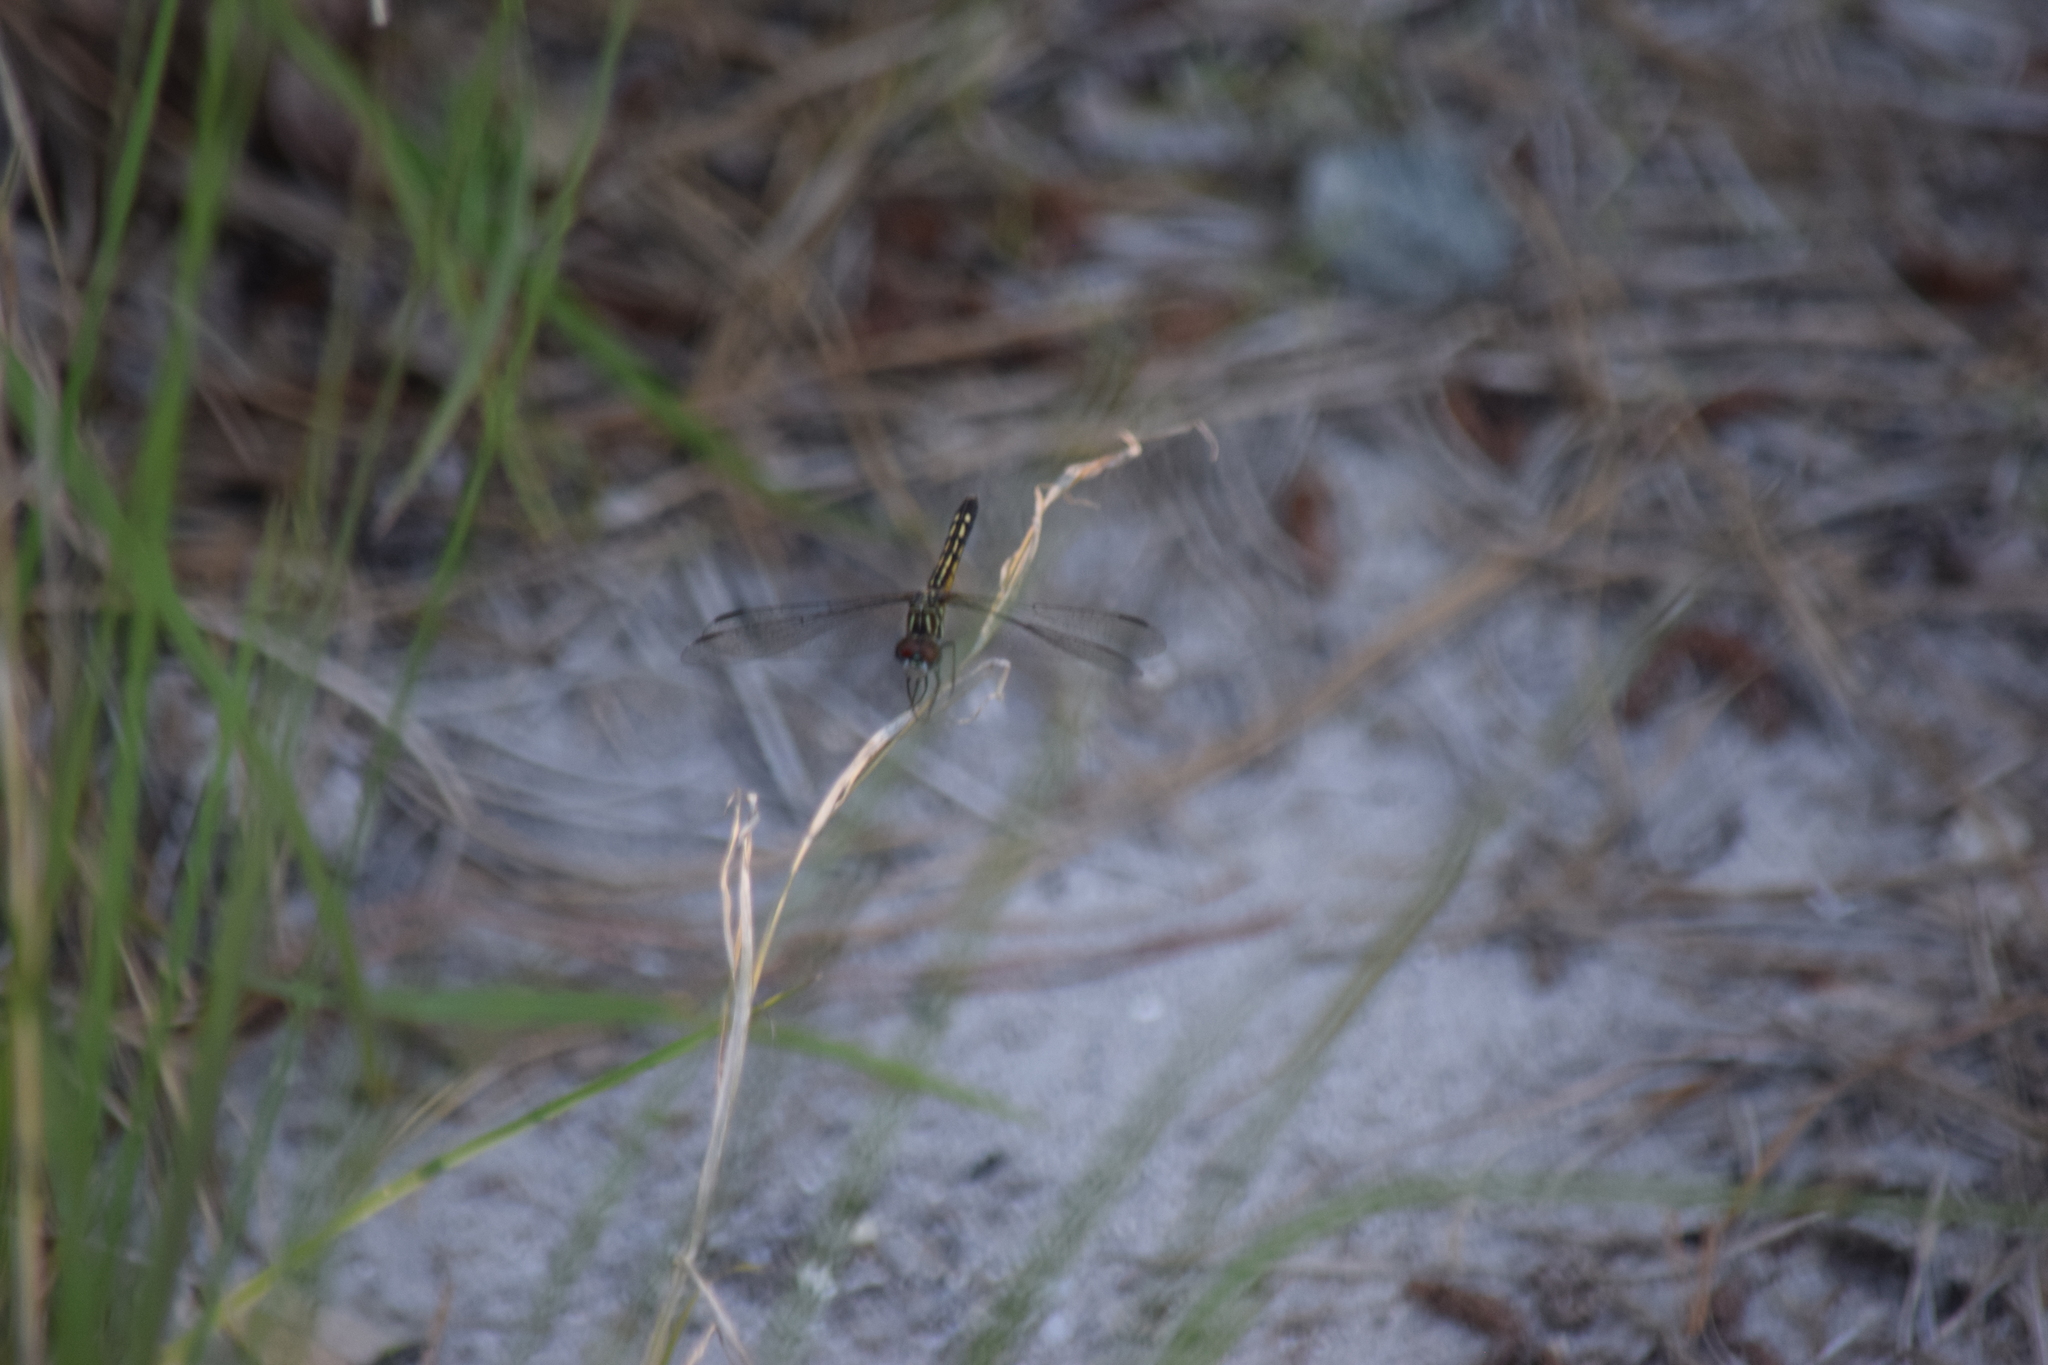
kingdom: Animalia
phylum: Arthropoda
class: Insecta
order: Odonata
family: Libellulidae
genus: Pachydiplax
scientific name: Pachydiplax longipennis
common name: Blue dasher
